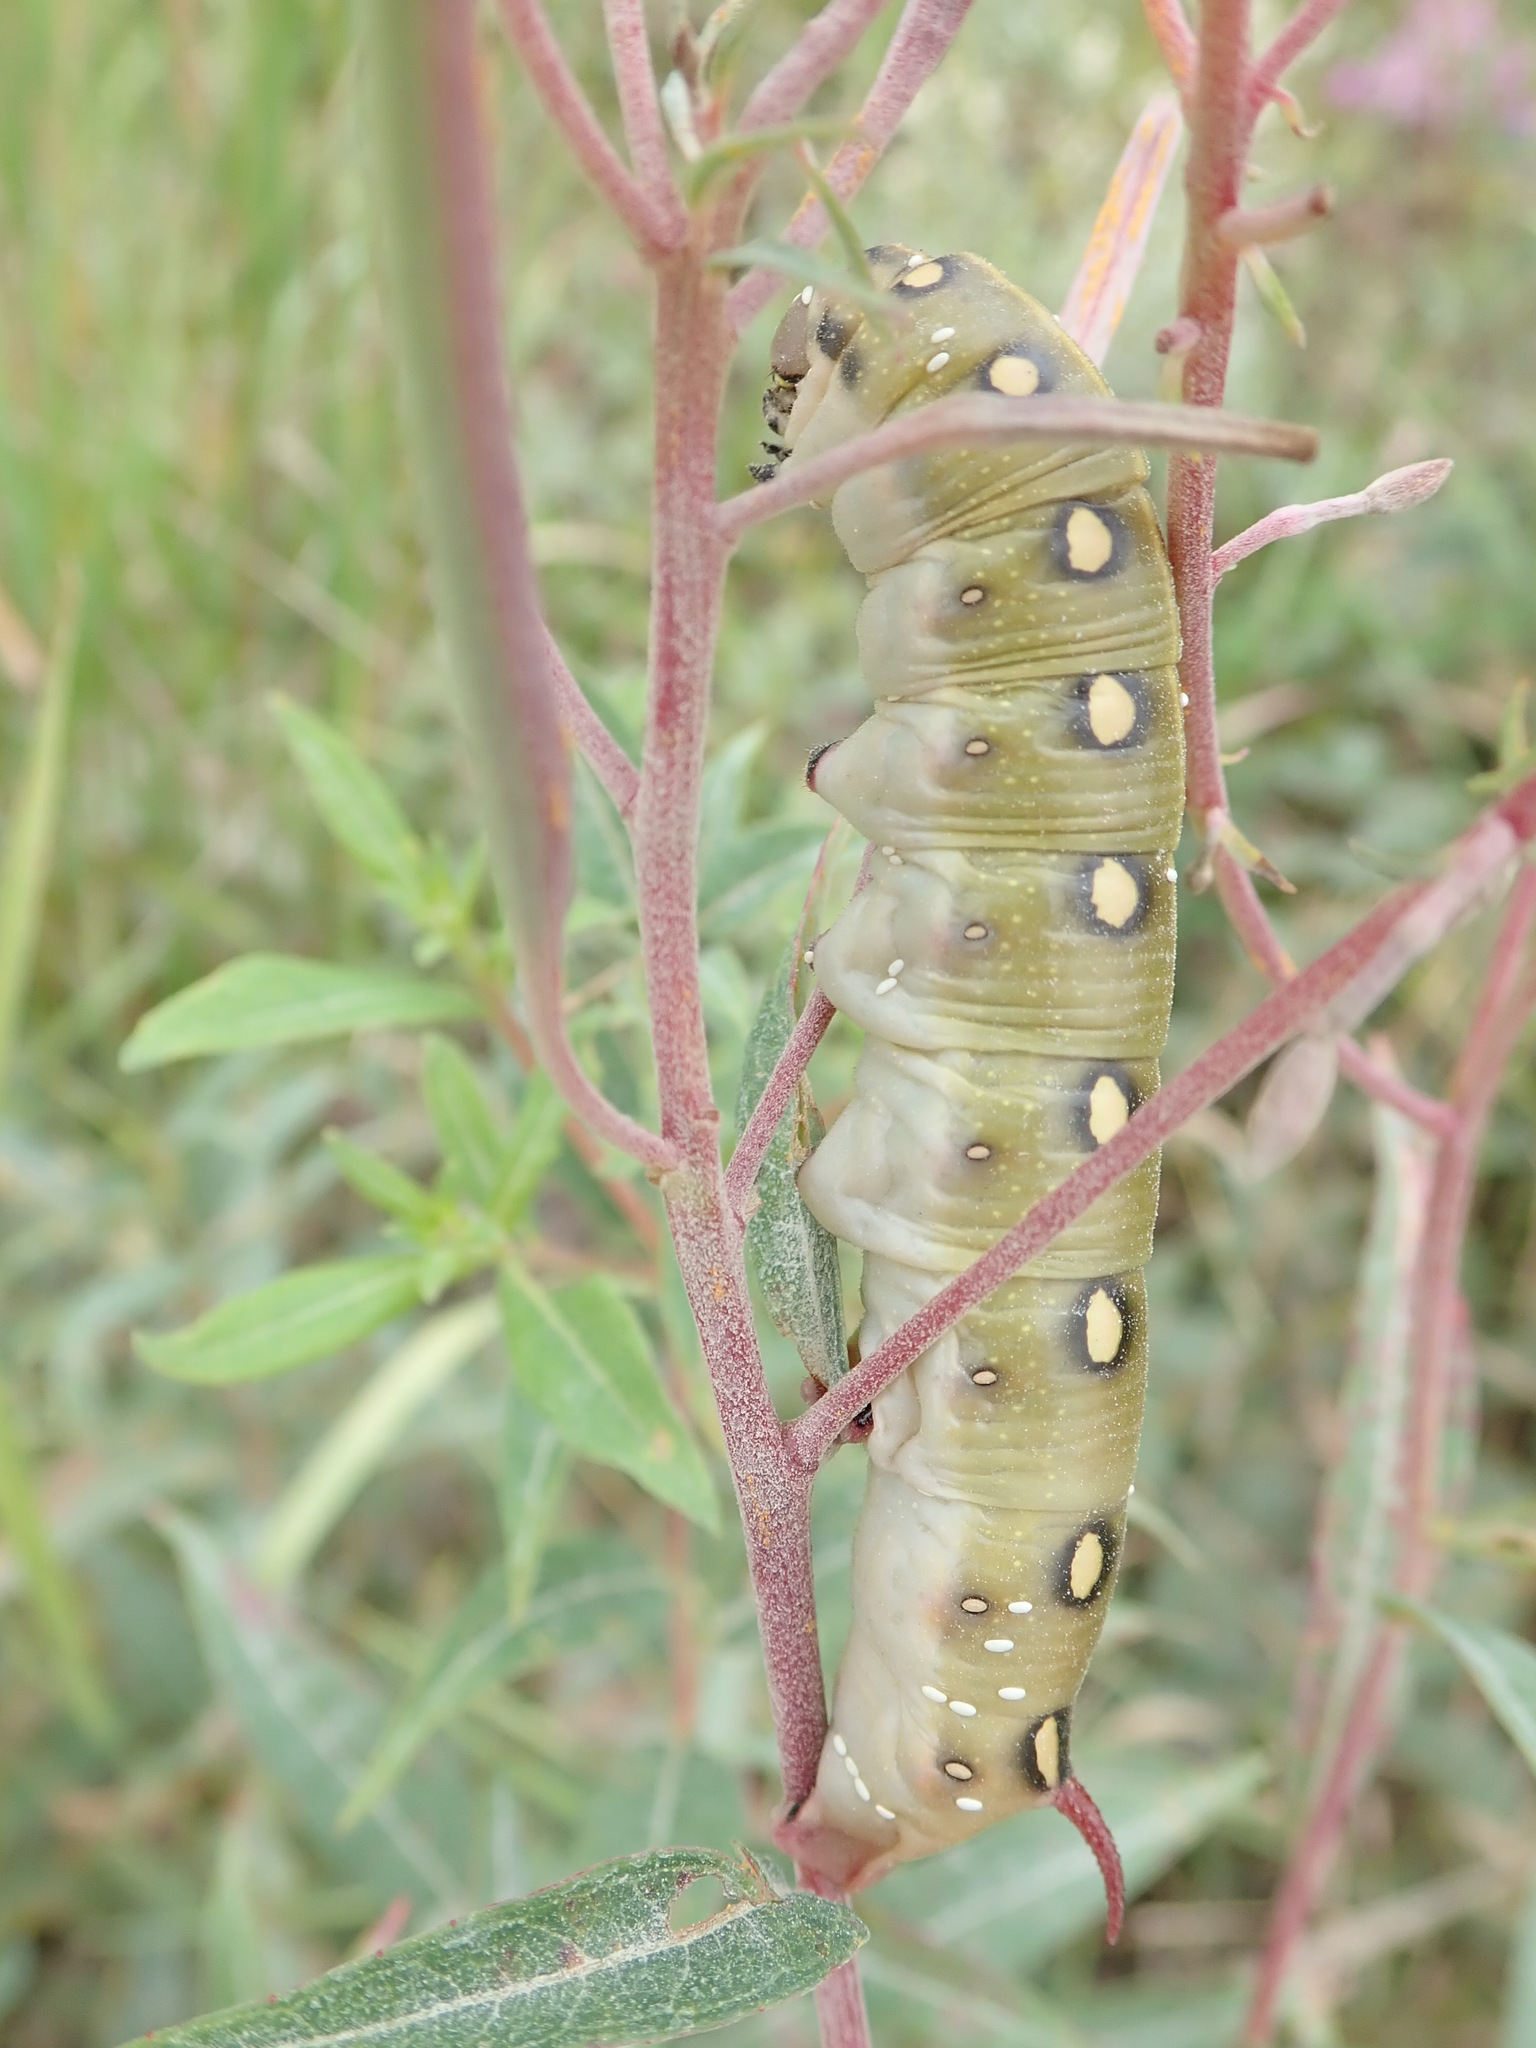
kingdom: Animalia
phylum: Arthropoda
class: Insecta
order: Lepidoptera
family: Sphingidae
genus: Hyles
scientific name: Hyles gallii
